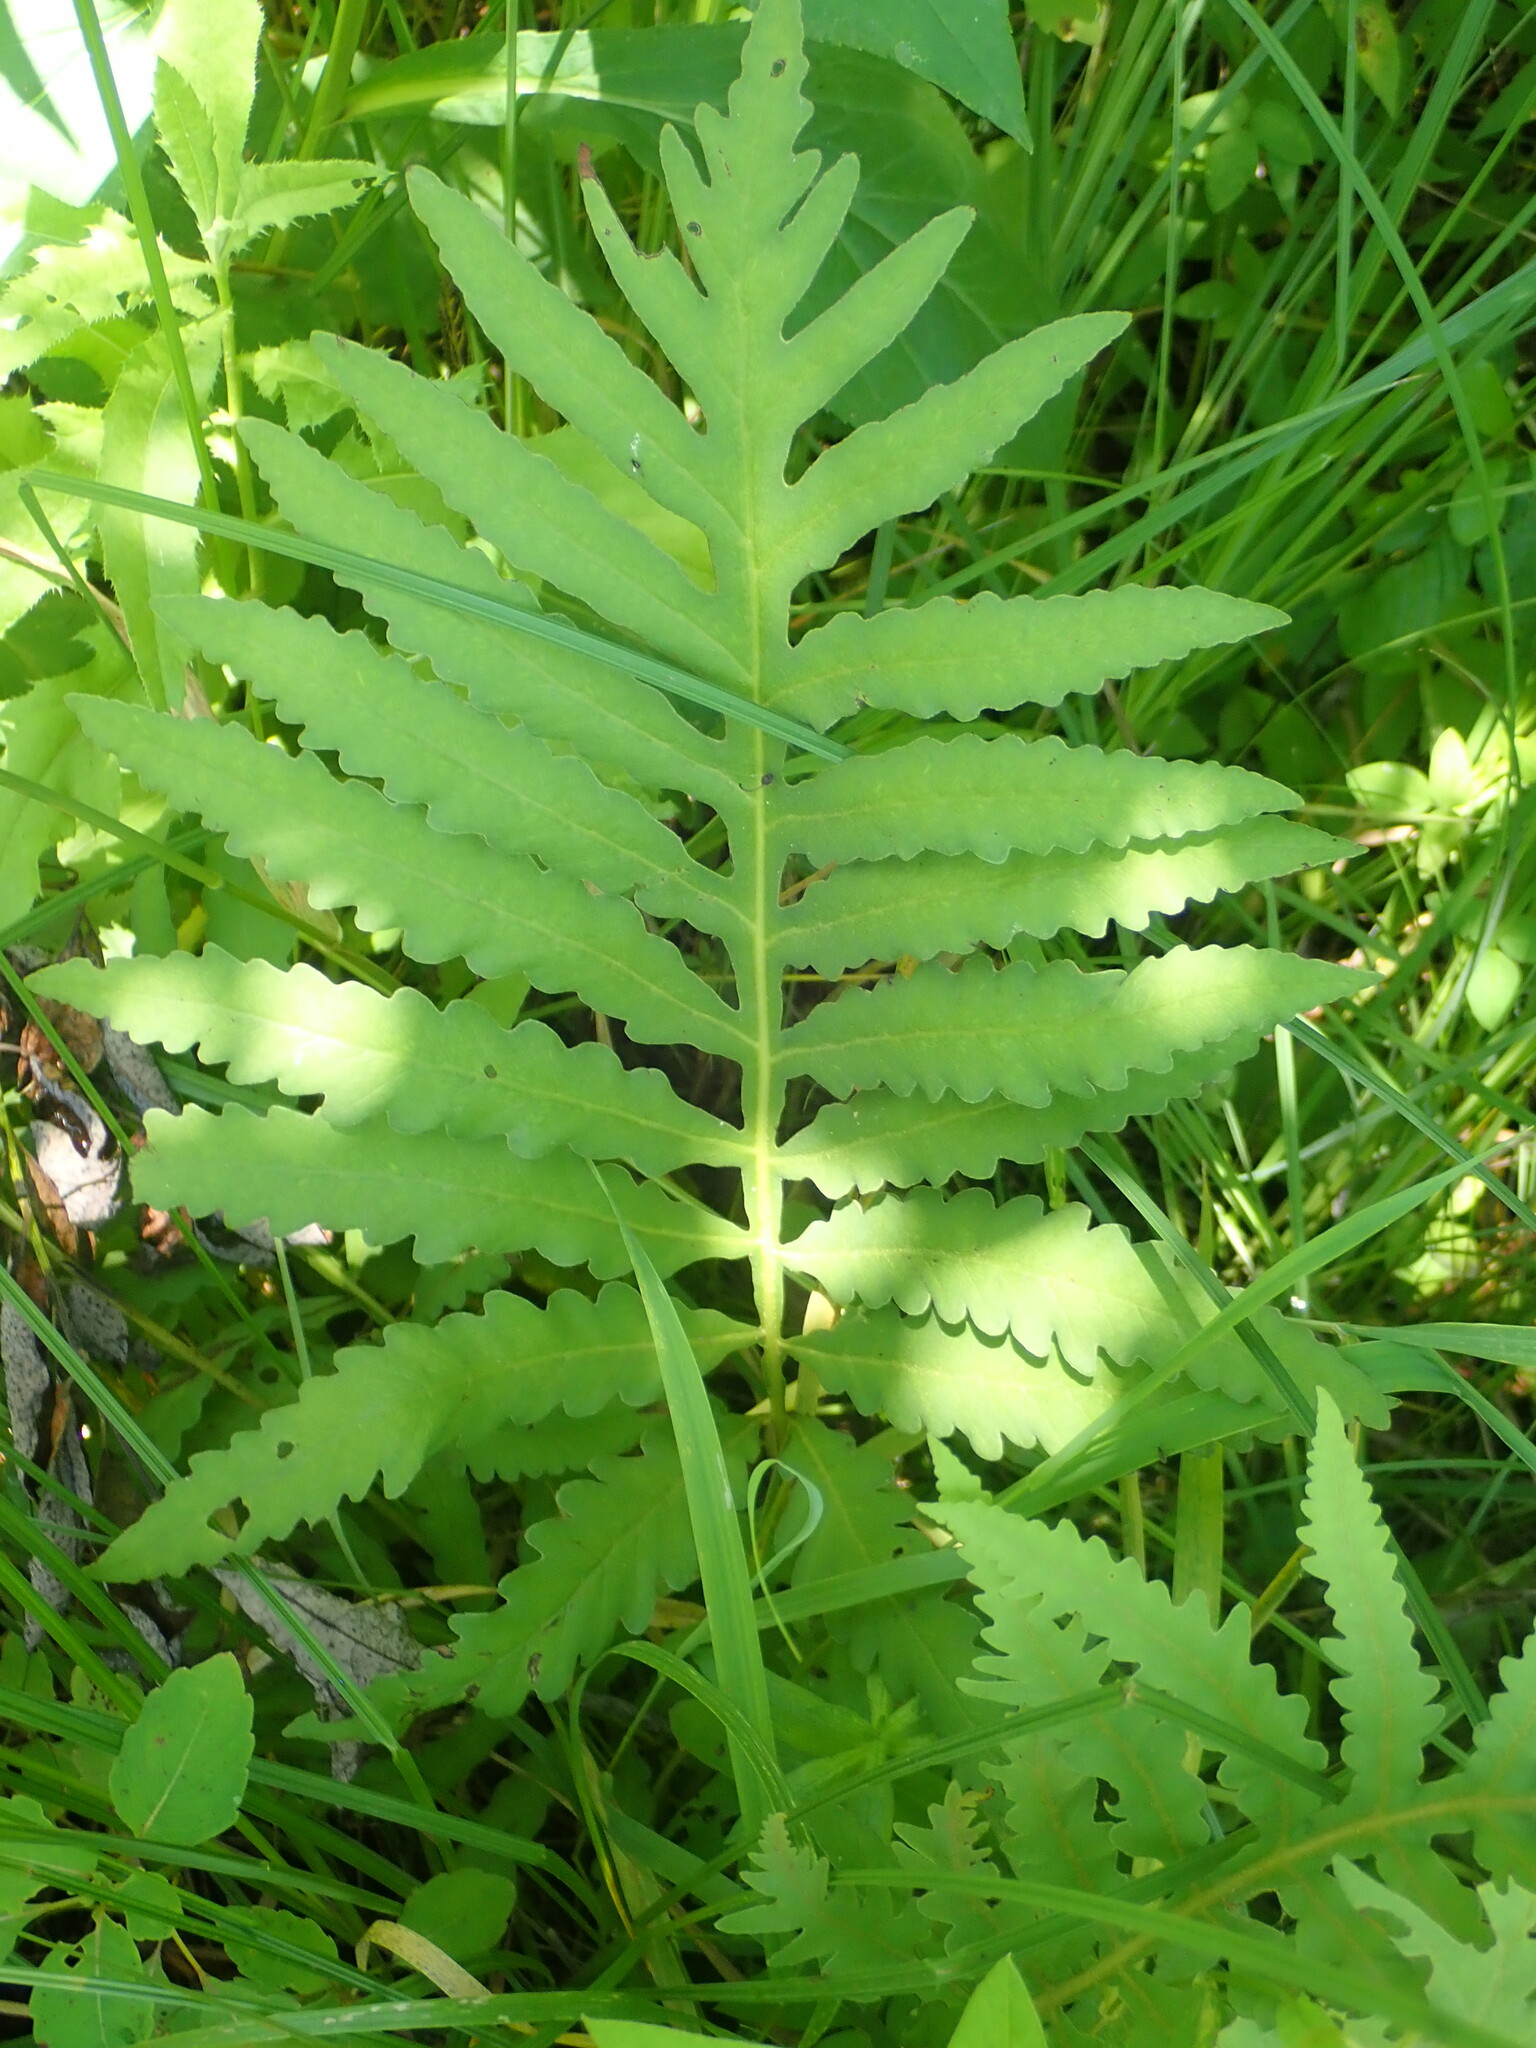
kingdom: Plantae
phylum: Tracheophyta
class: Polypodiopsida
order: Polypodiales
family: Onocleaceae
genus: Onoclea
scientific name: Onoclea sensibilis
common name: Sensitive fern
